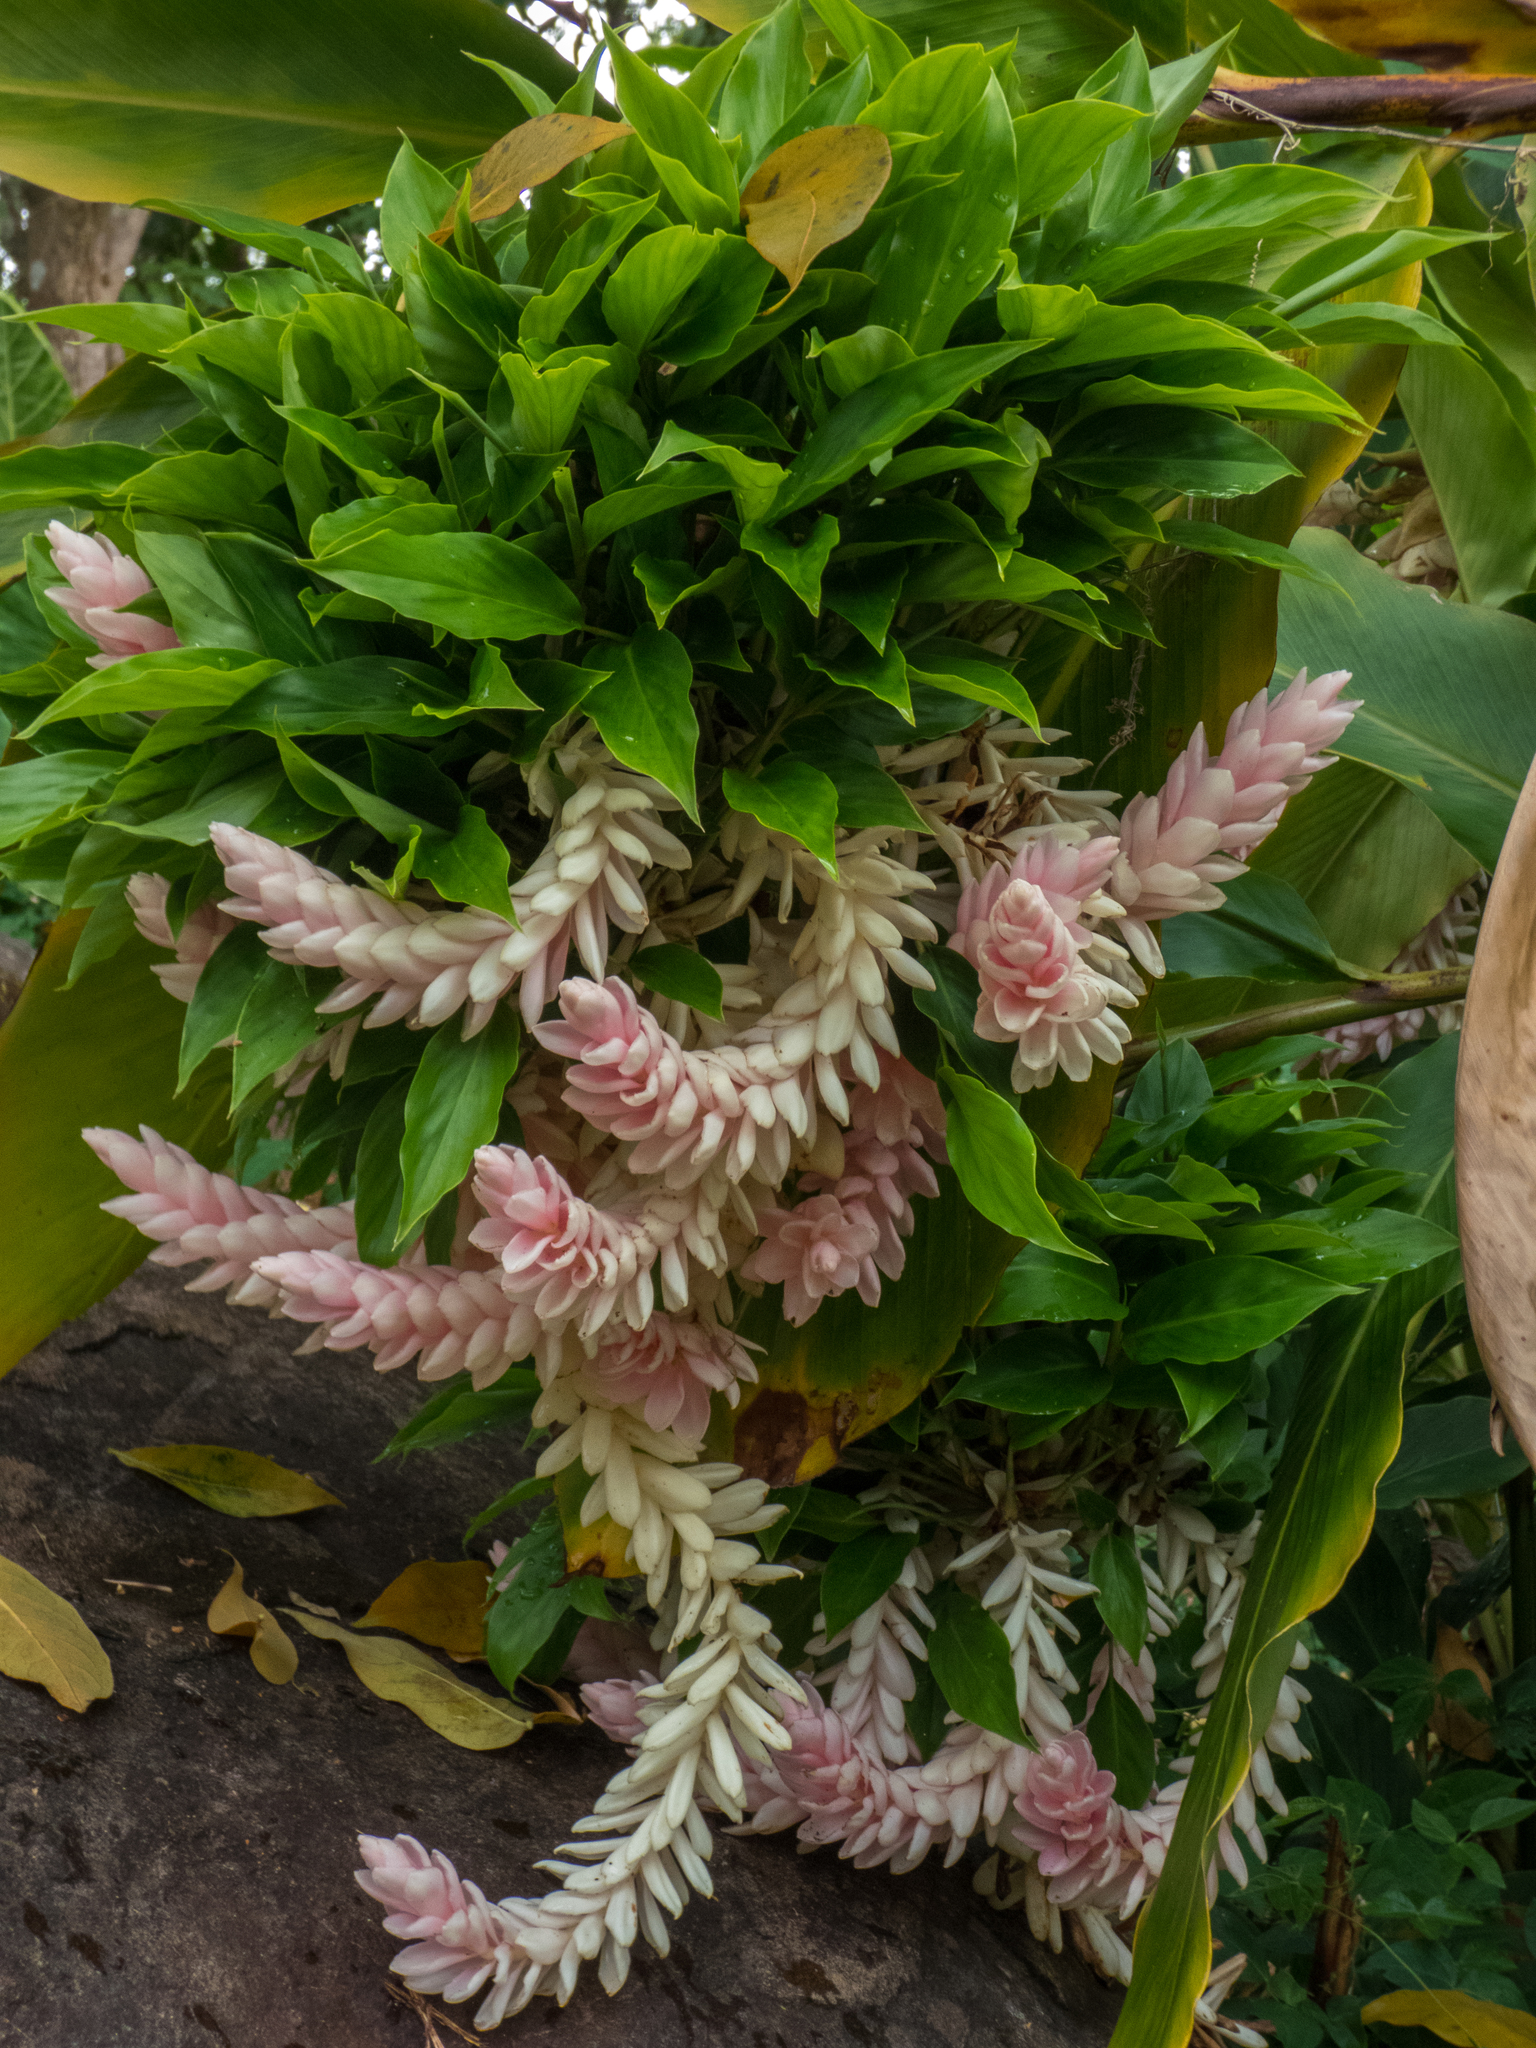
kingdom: Plantae
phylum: Tracheophyta
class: Liliopsida
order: Zingiberales
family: Zingiberaceae
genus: Alpinia
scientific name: Alpinia purpurata
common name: Red ginger
